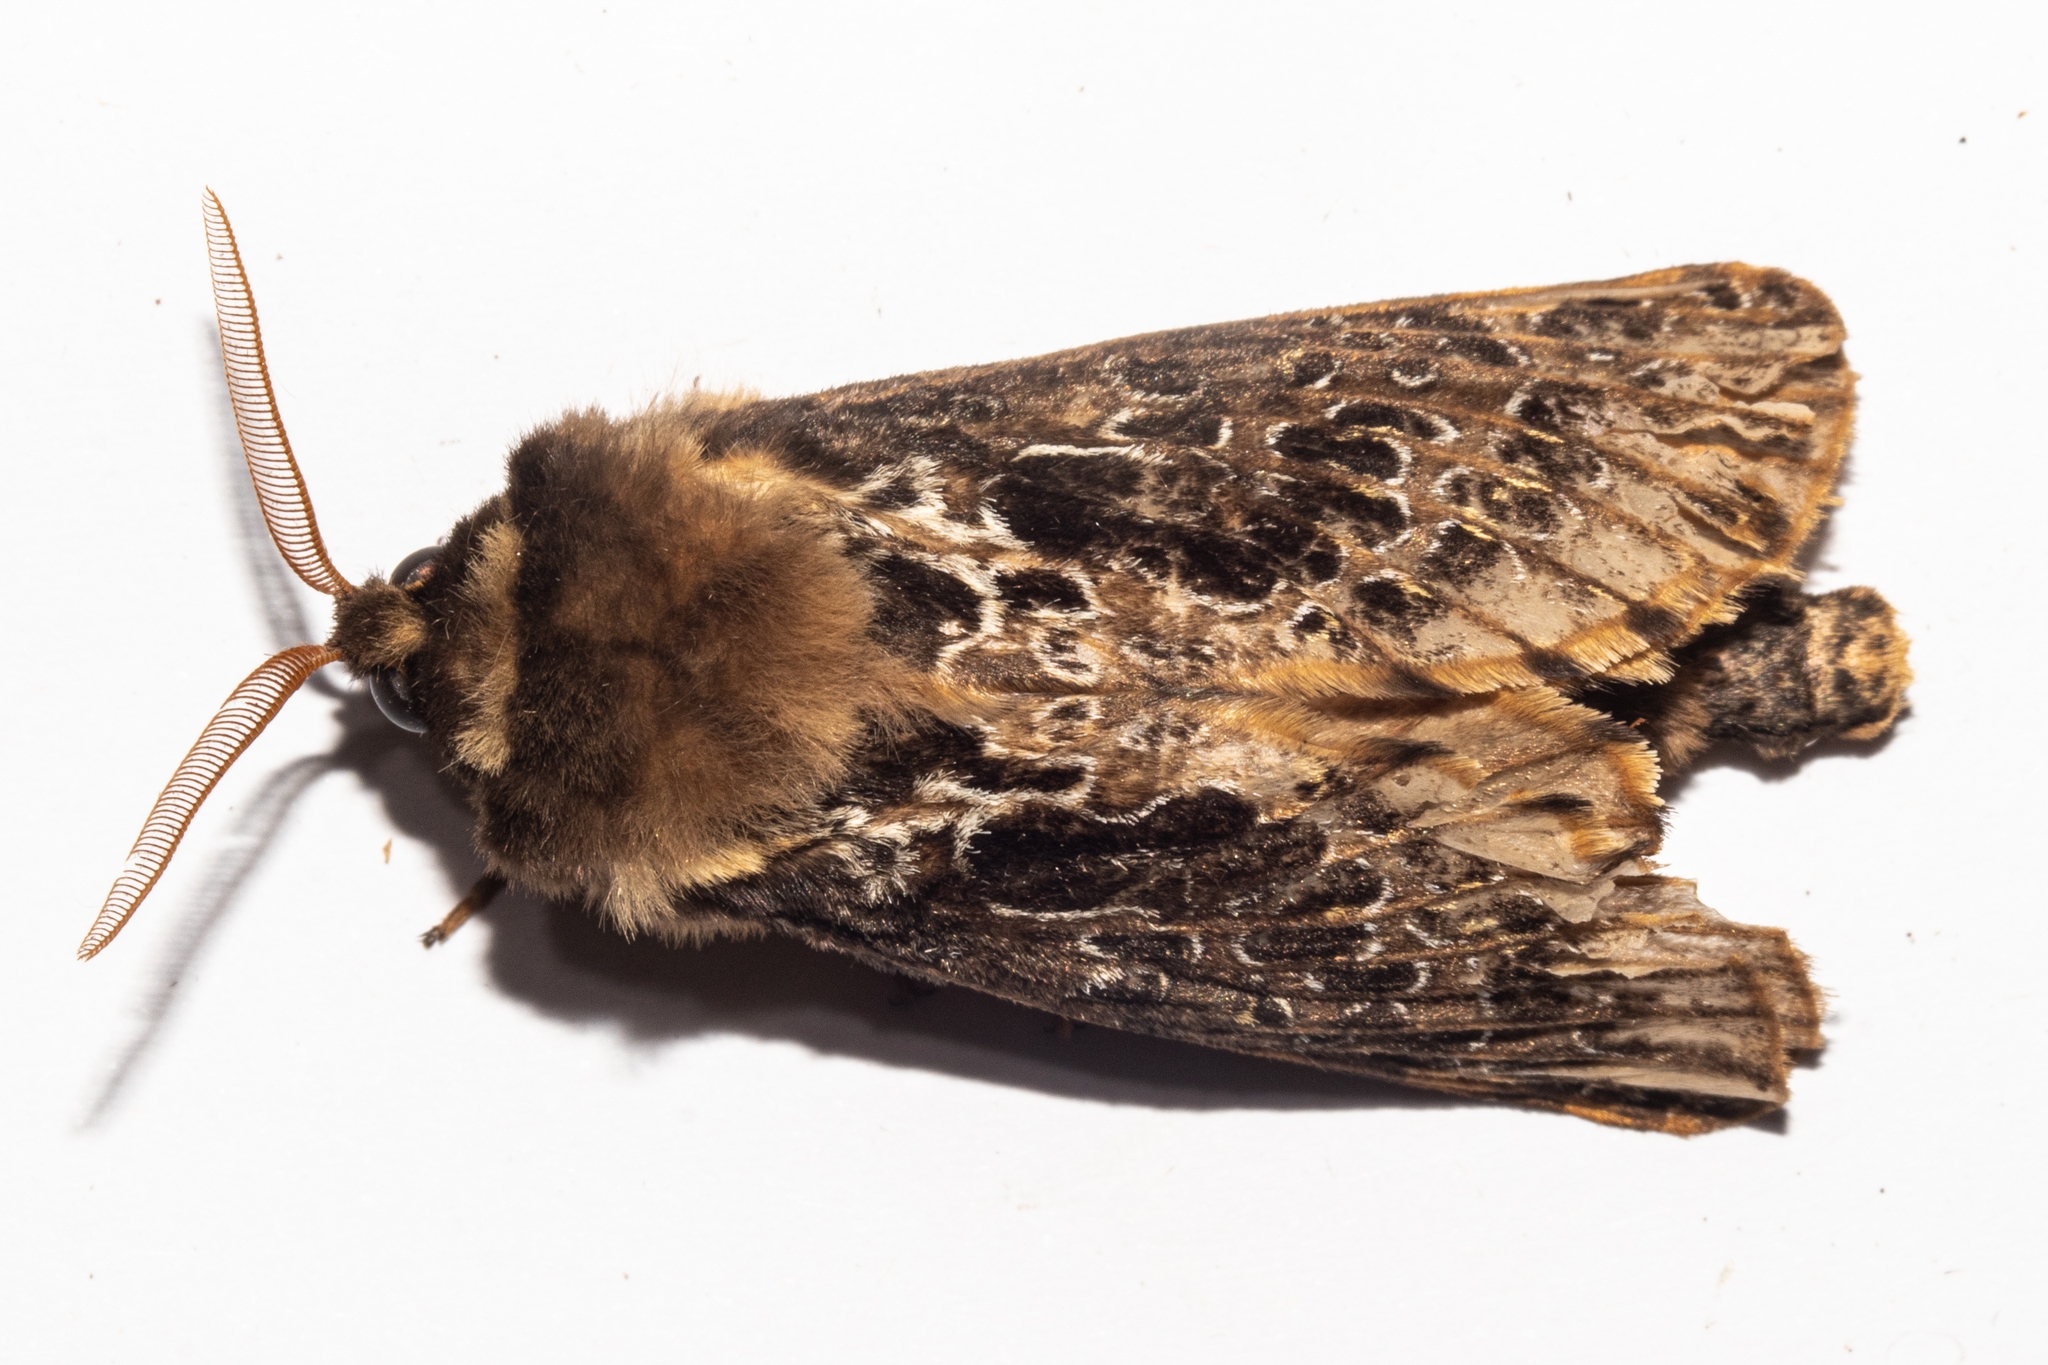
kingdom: Animalia
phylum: Arthropoda
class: Insecta
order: Lepidoptera
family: Hepialidae
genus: Aoraia
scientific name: Aoraia aurimaculata
